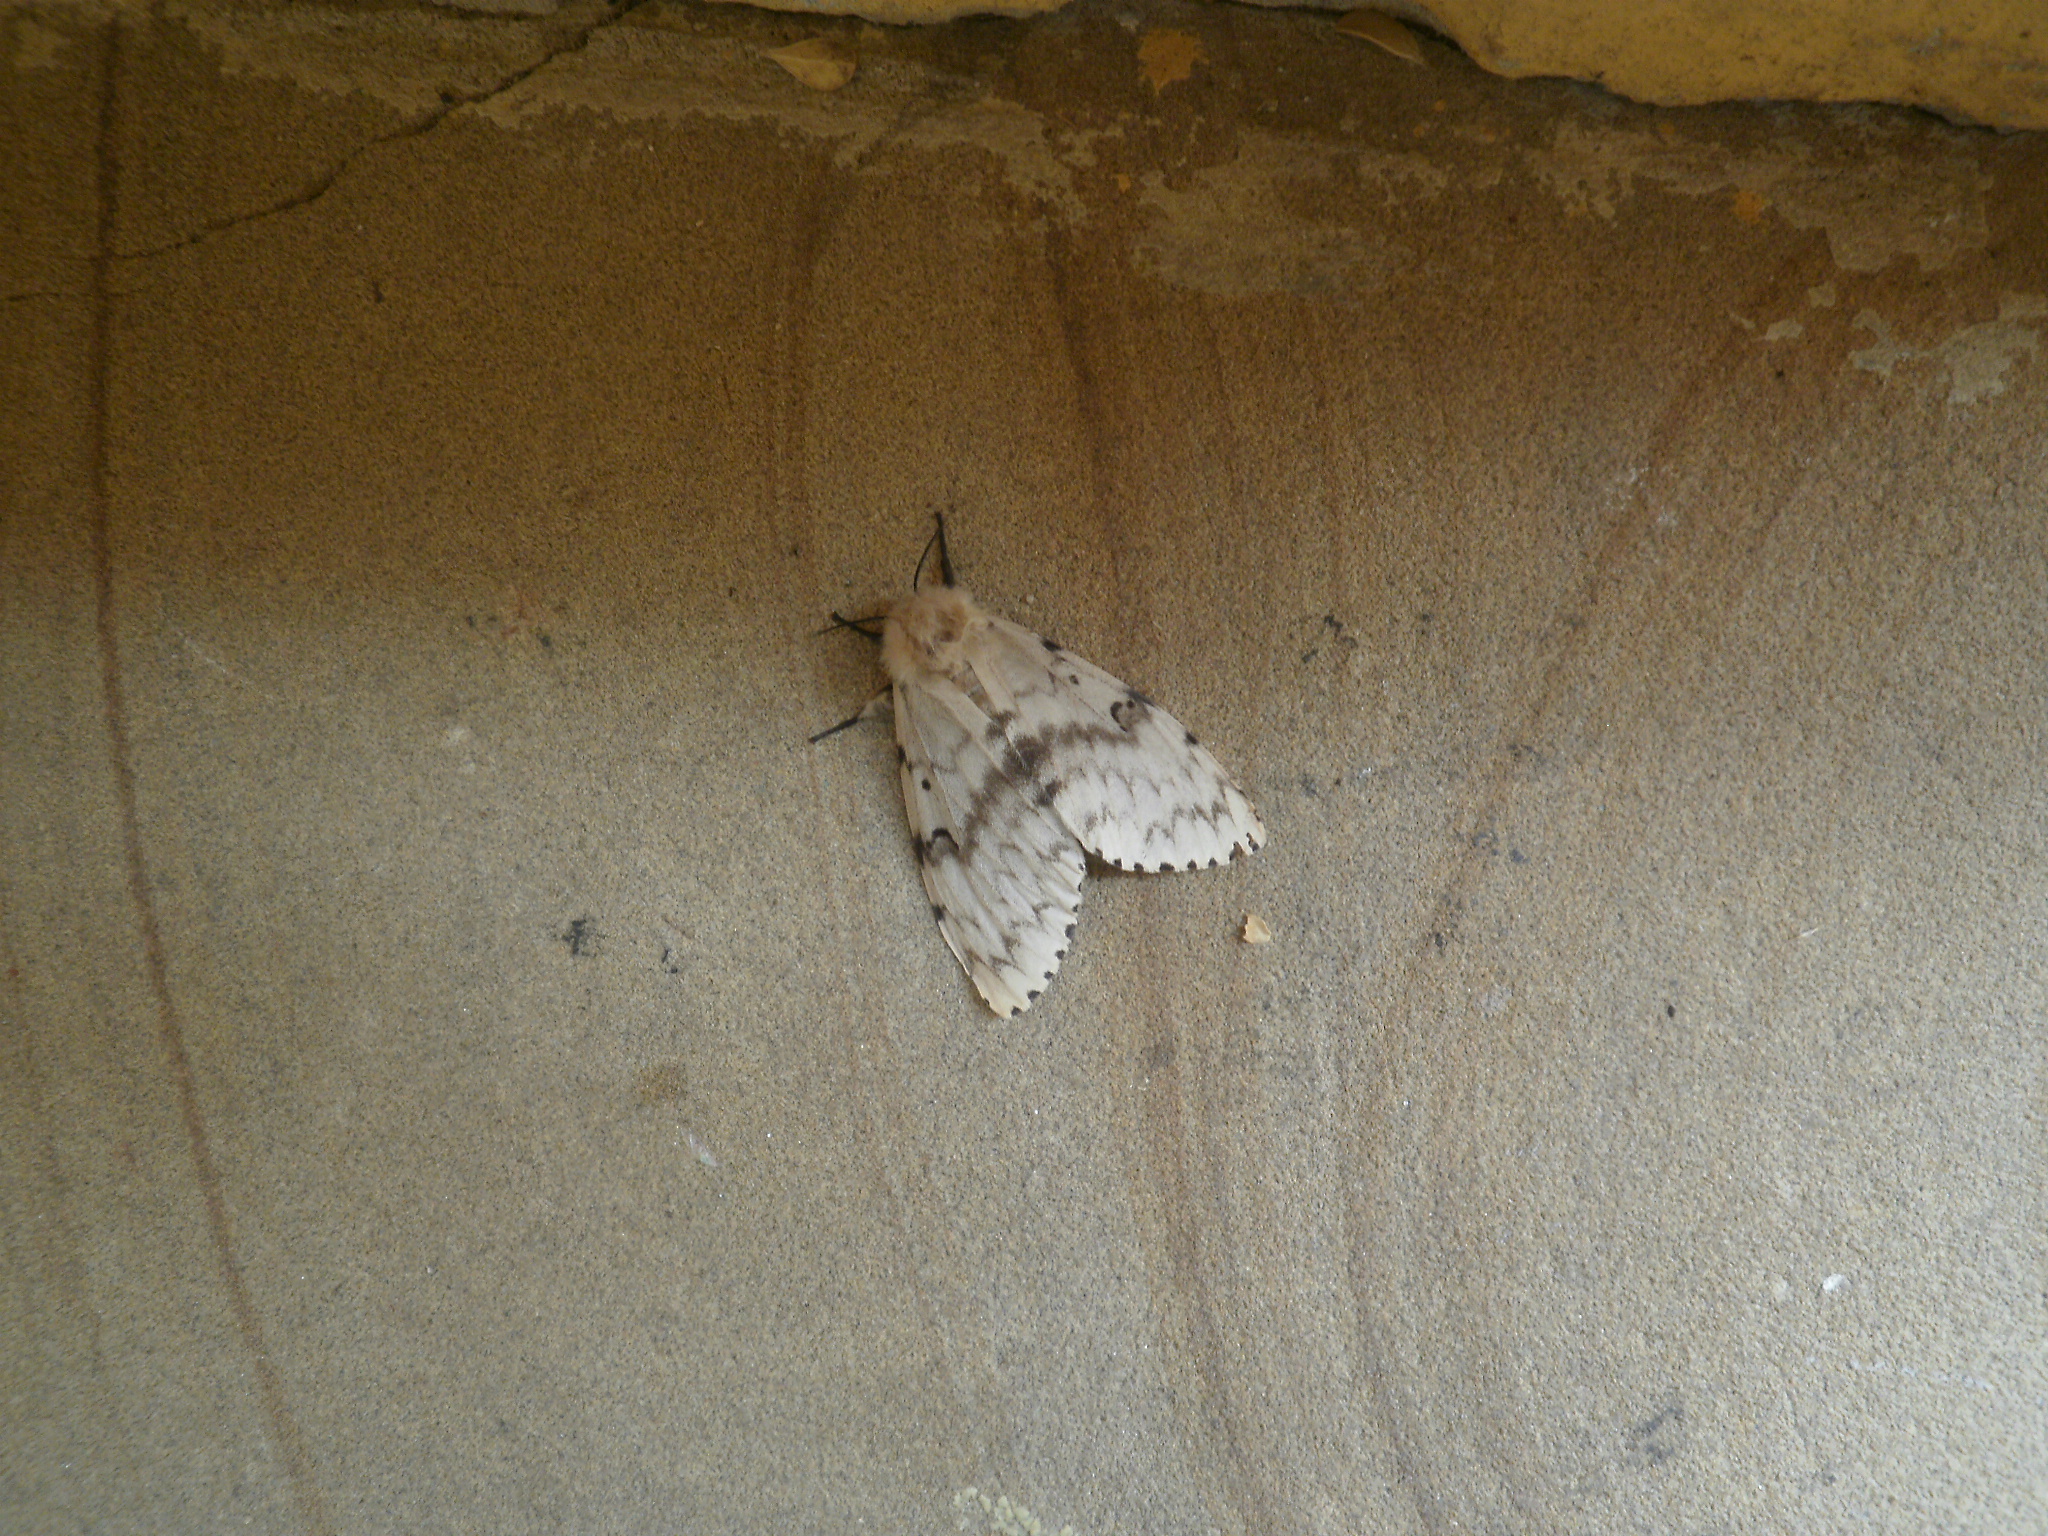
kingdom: Animalia
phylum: Arthropoda
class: Insecta
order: Lepidoptera
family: Erebidae
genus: Lymantria
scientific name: Lymantria dispar
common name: Gypsy moth
